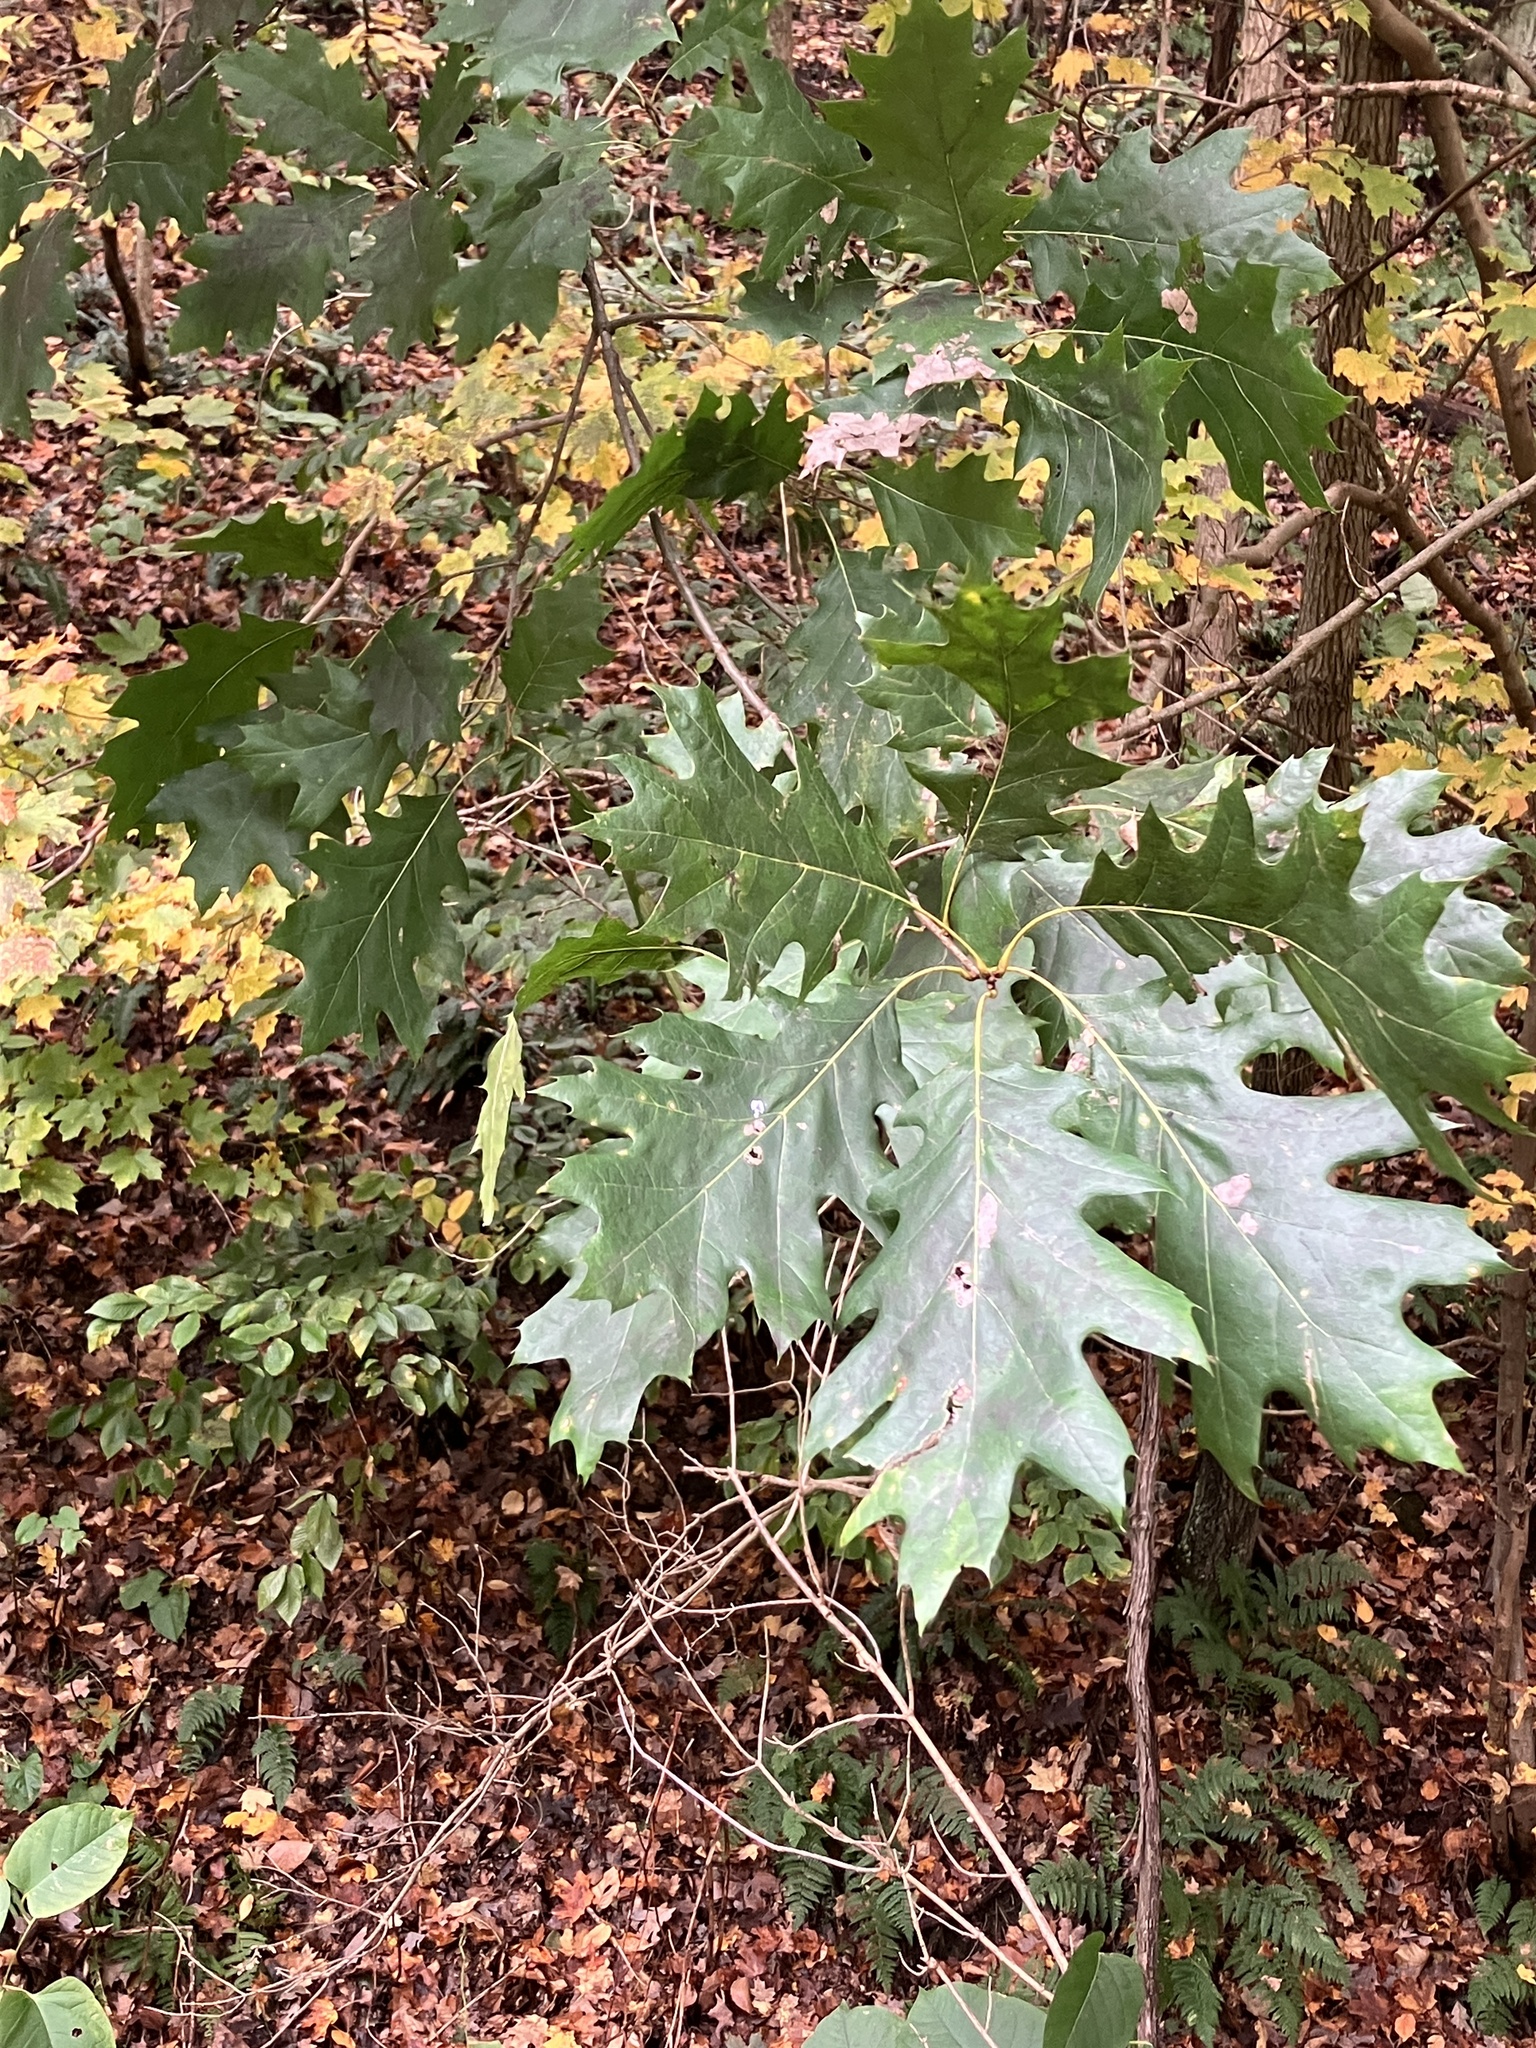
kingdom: Plantae
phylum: Tracheophyta
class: Magnoliopsida
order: Fagales
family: Fagaceae
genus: Quercus
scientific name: Quercus rubra
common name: Red oak
